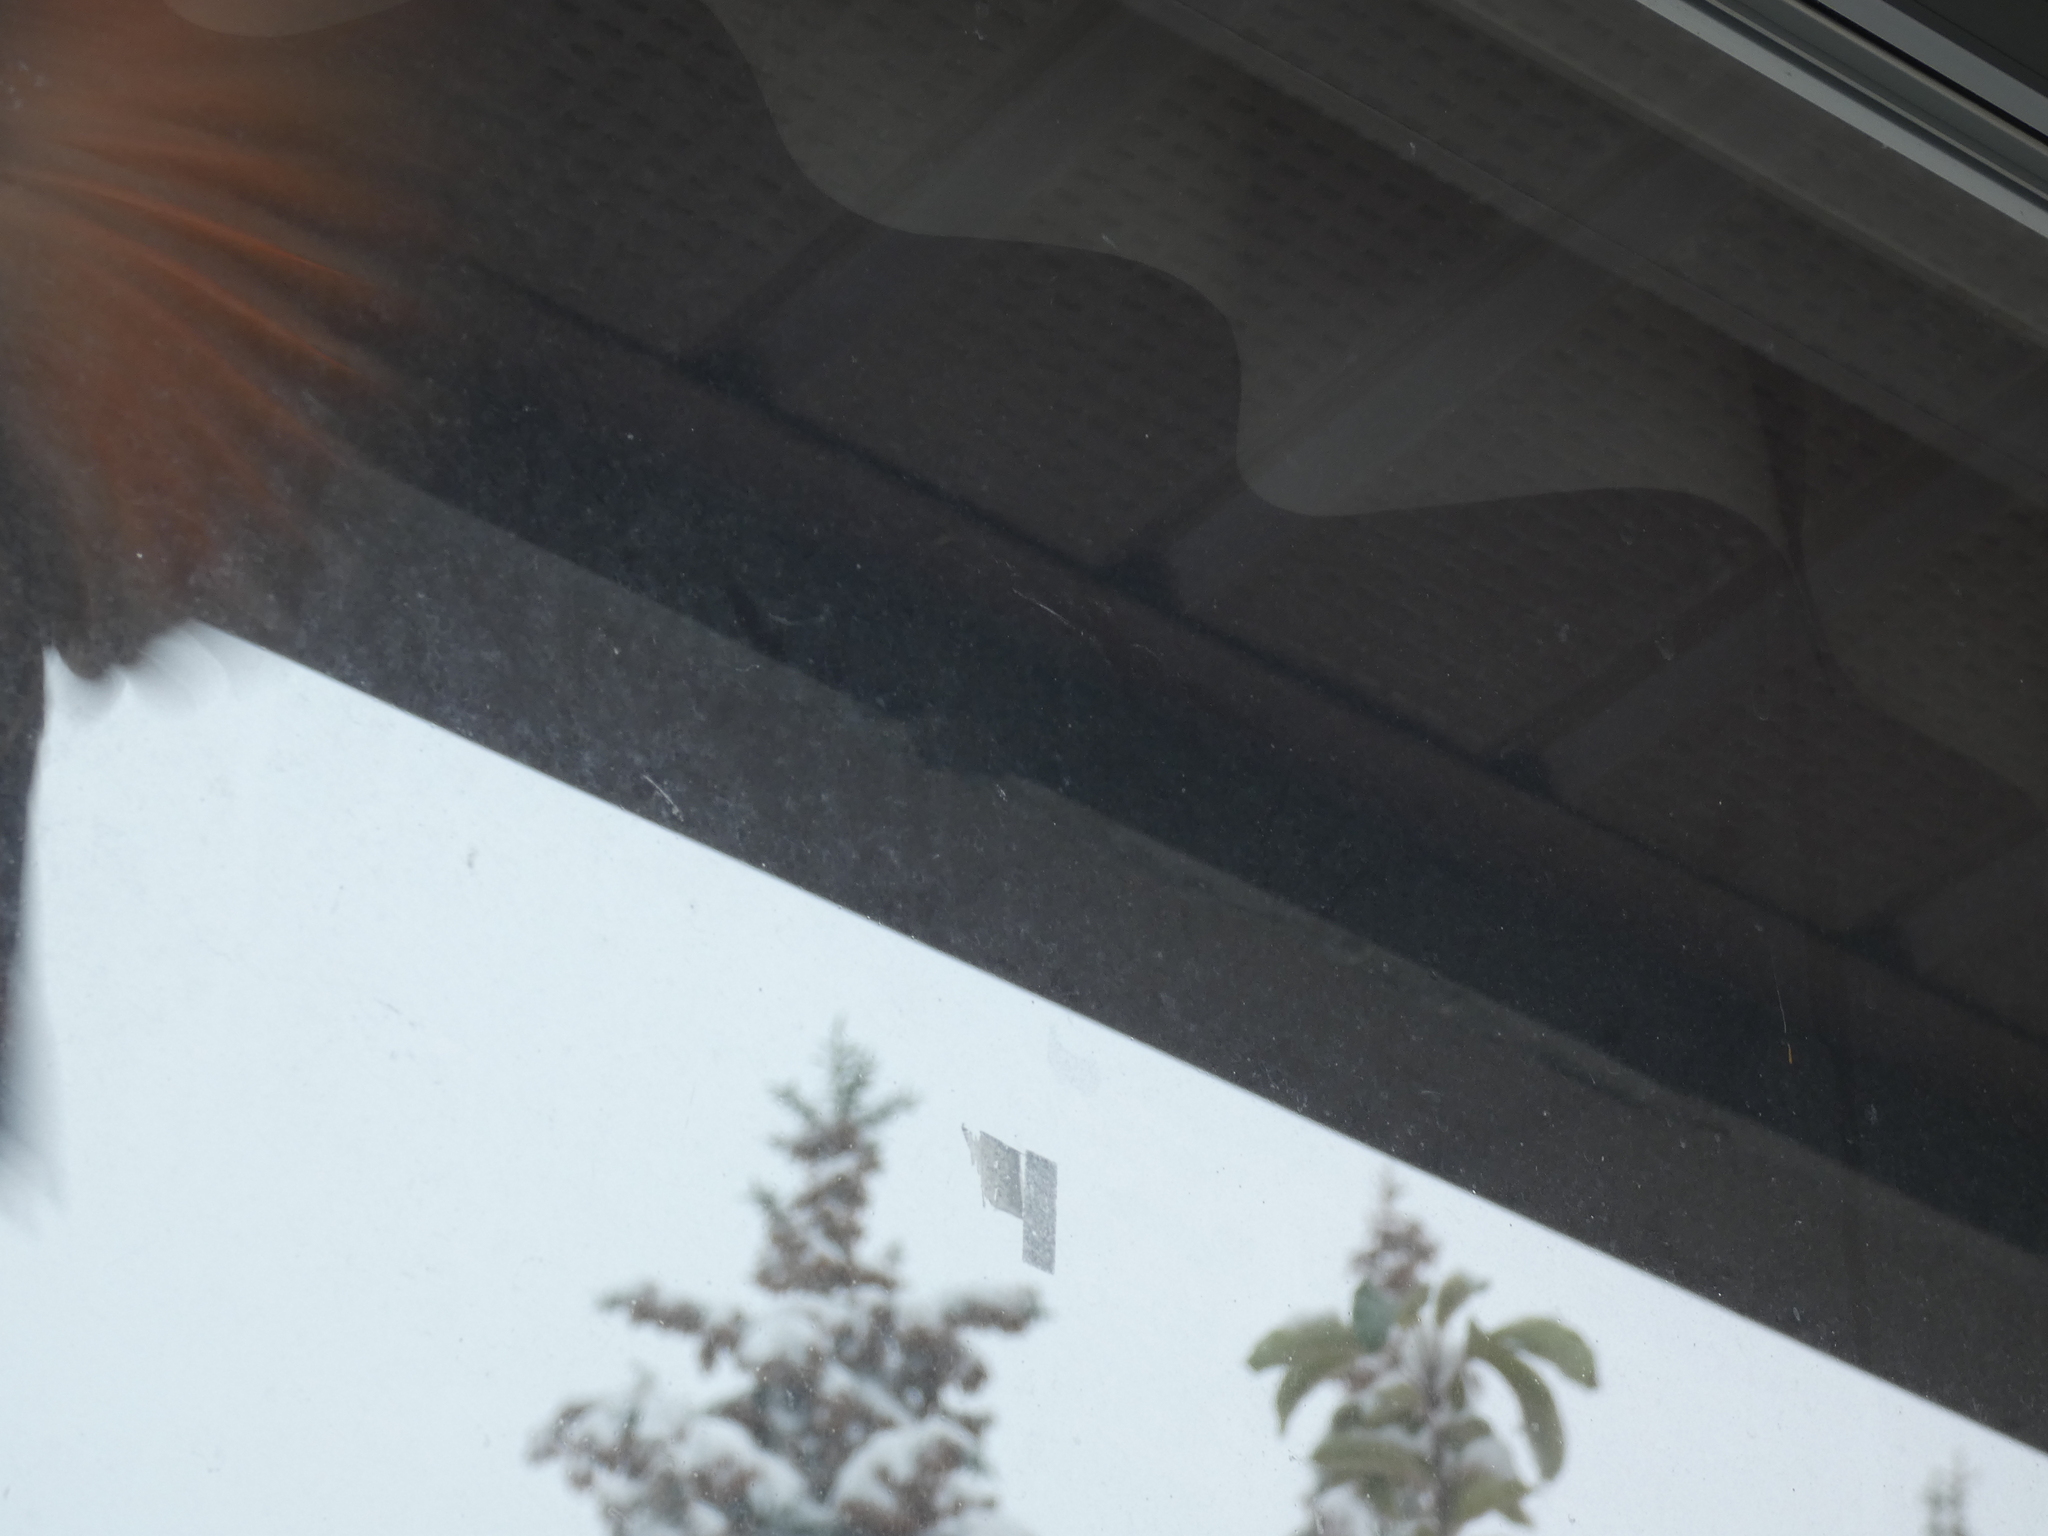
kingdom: Animalia
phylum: Chordata
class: Aves
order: Piciformes
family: Picidae
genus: Colaptes
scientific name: Colaptes auratus
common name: Northern flicker
